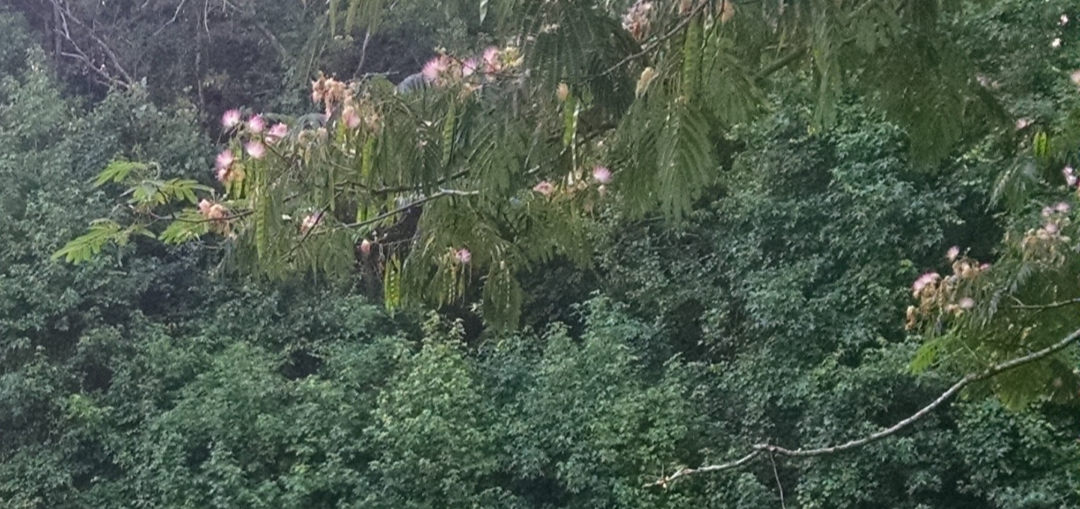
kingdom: Plantae
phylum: Tracheophyta
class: Magnoliopsida
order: Fabales
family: Fabaceae
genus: Albizia
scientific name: Albizia julibrissin
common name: Silktree
